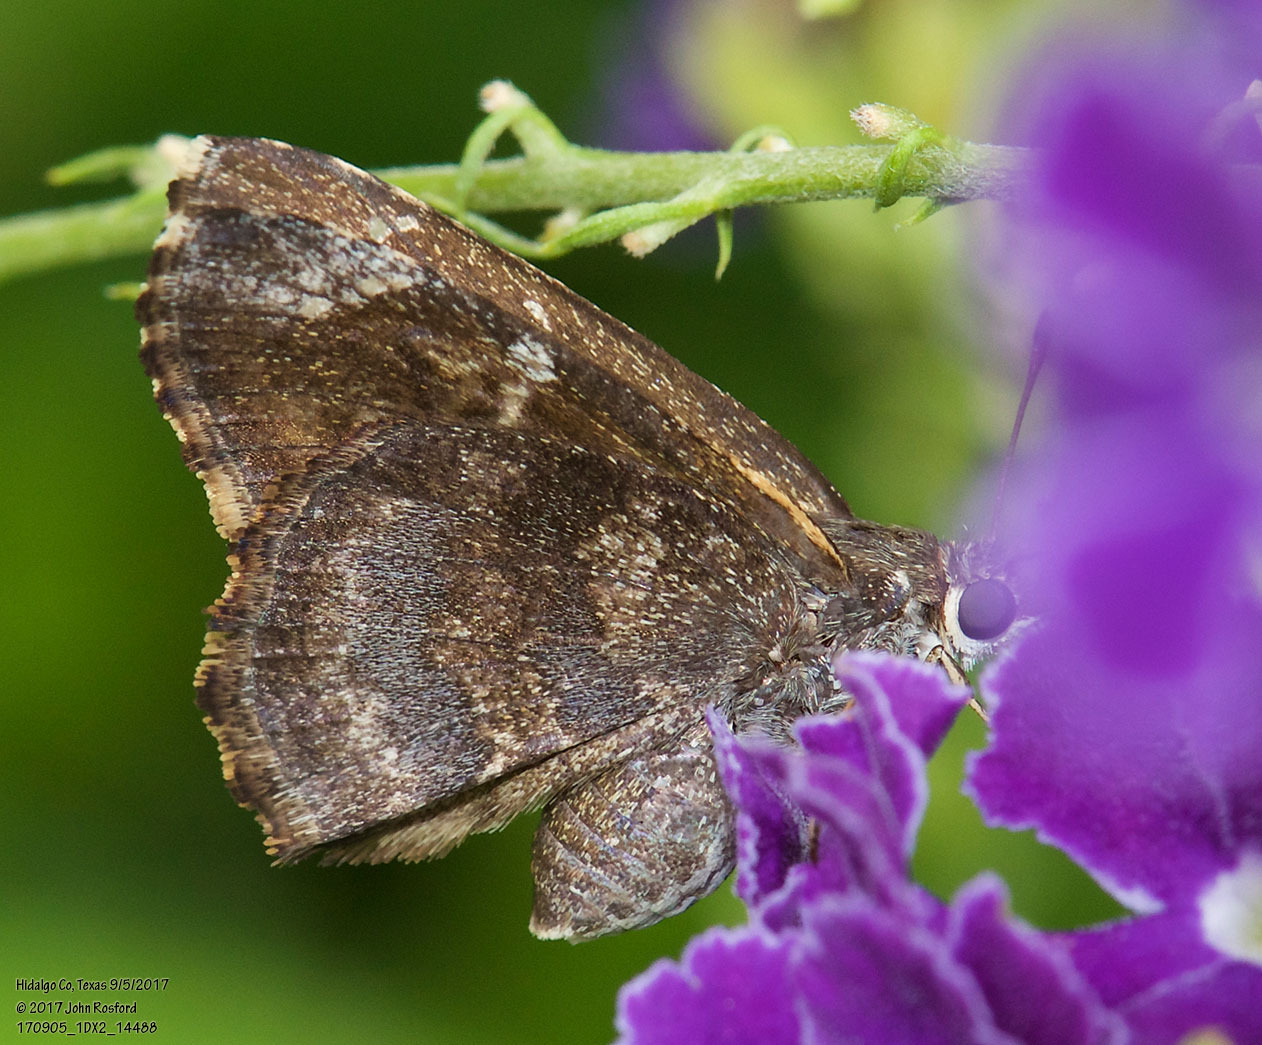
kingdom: Animalia
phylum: Arthropoda
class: Insecta
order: Lepidoptera
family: Hesperiidae
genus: Caicella
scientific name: Caicella calchas
